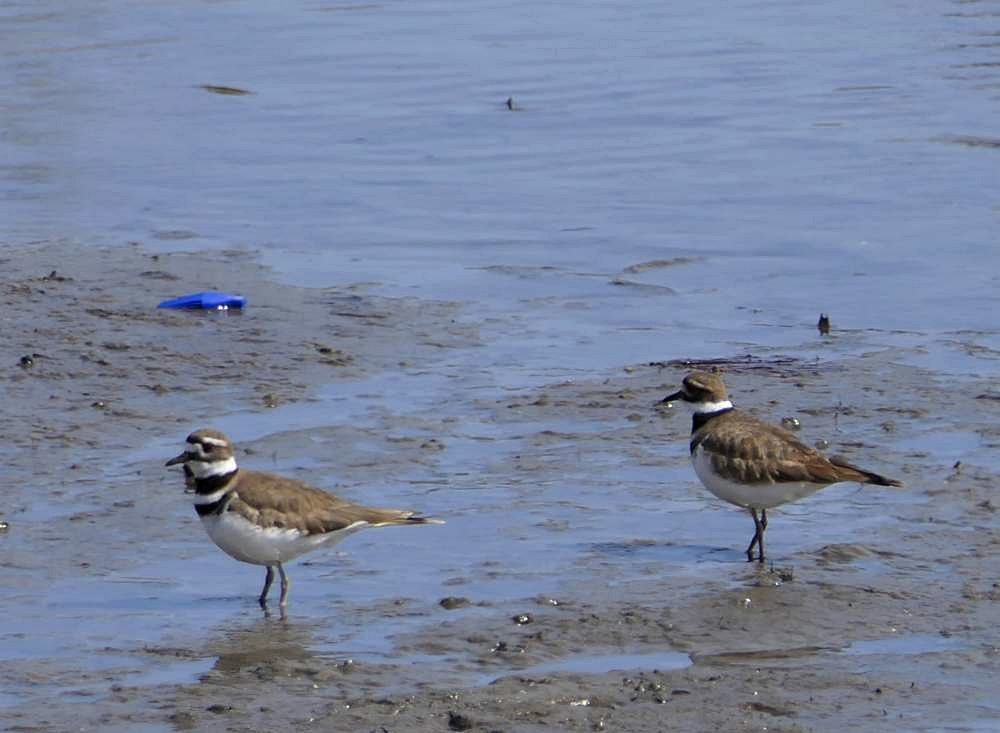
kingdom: Animalia
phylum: Chordata
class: Aves
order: Charadriiformes
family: Charadriidae
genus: Charadrius
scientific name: Charadrius vociferus
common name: Killdeer
